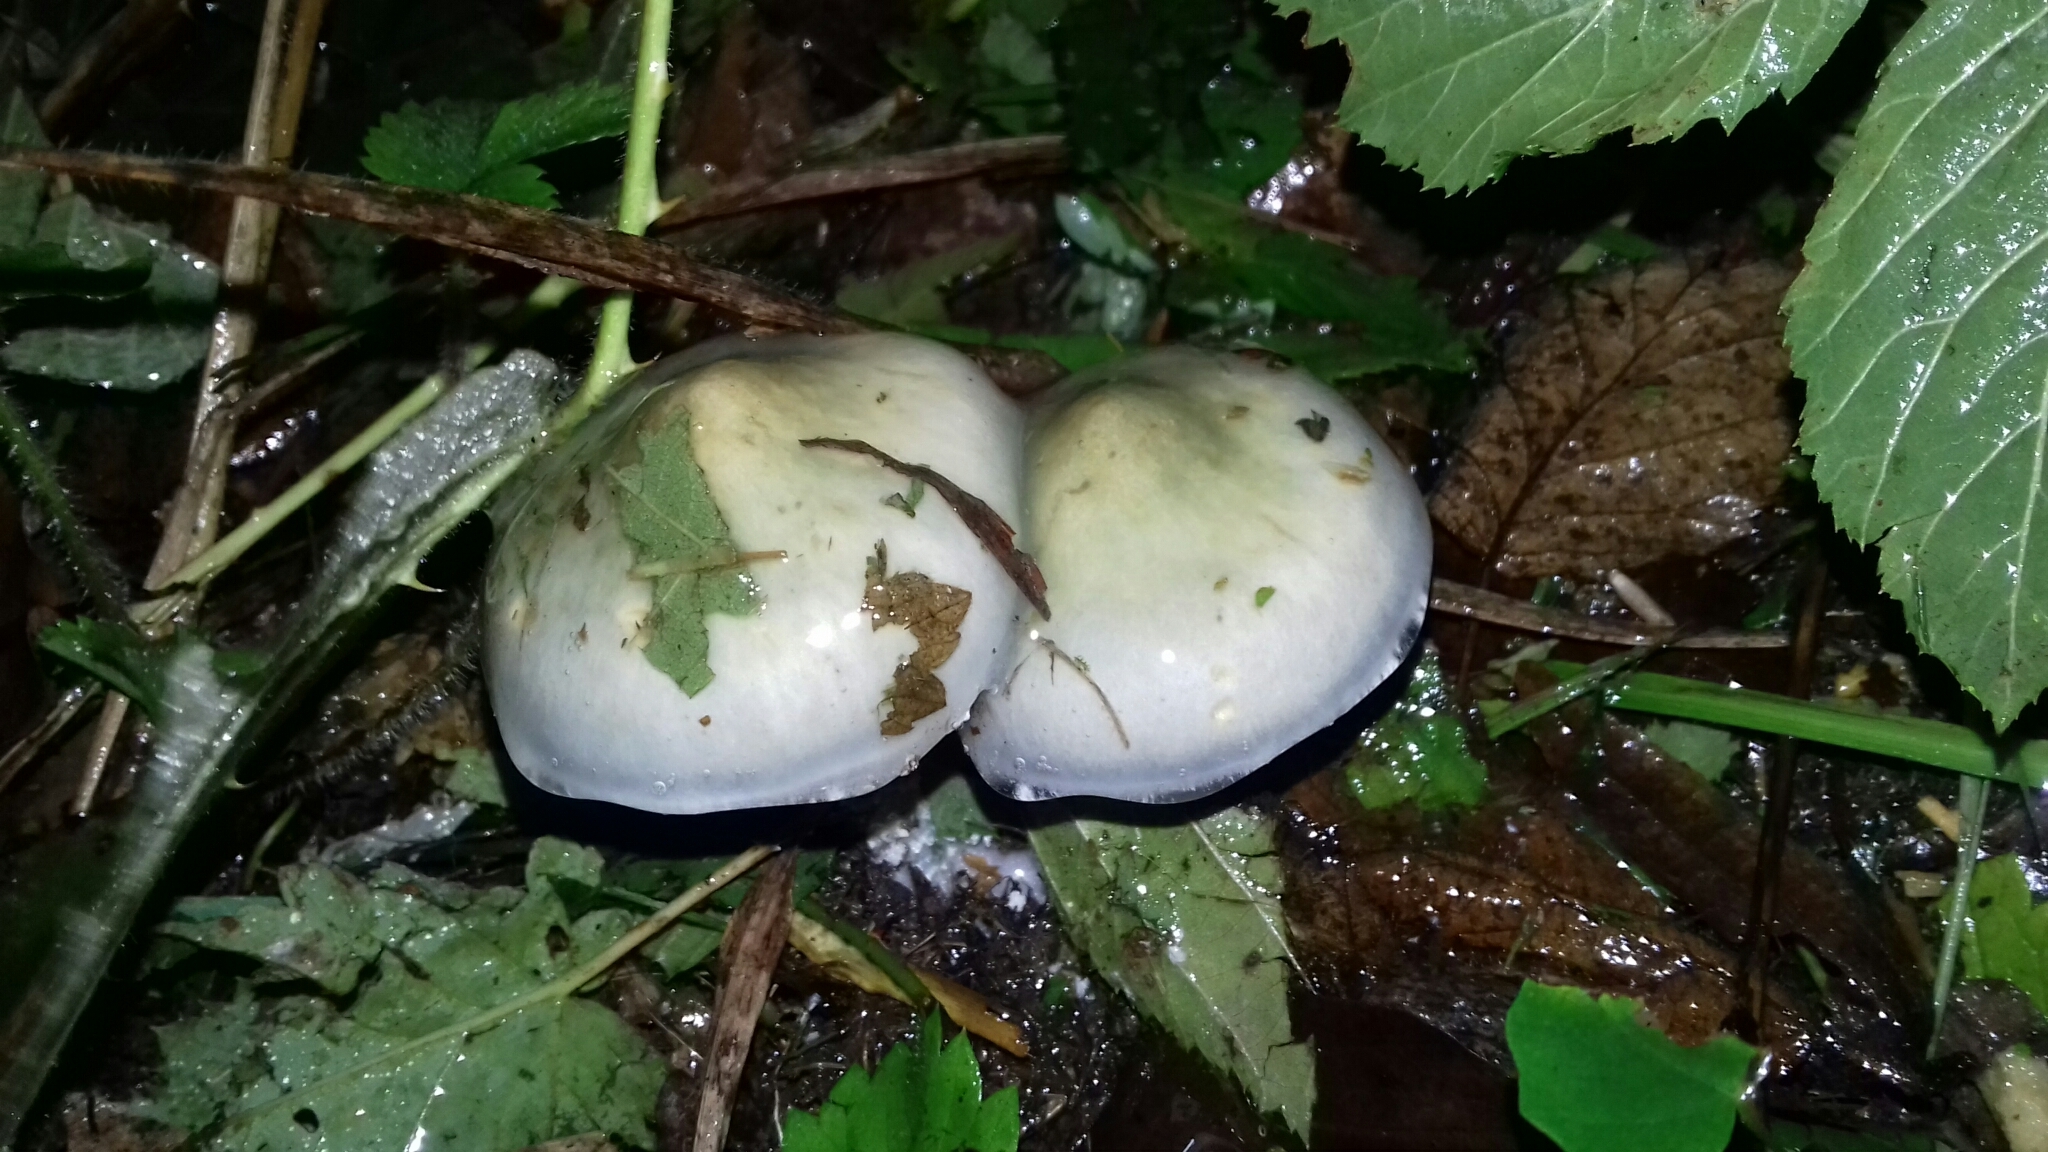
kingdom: Fungi
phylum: Basidiomycota
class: Agaricomycetes
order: Agaricales
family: Strophariaceae
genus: Stropharia
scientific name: Stropharia aeruginosa
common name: Verdigris roundhead
